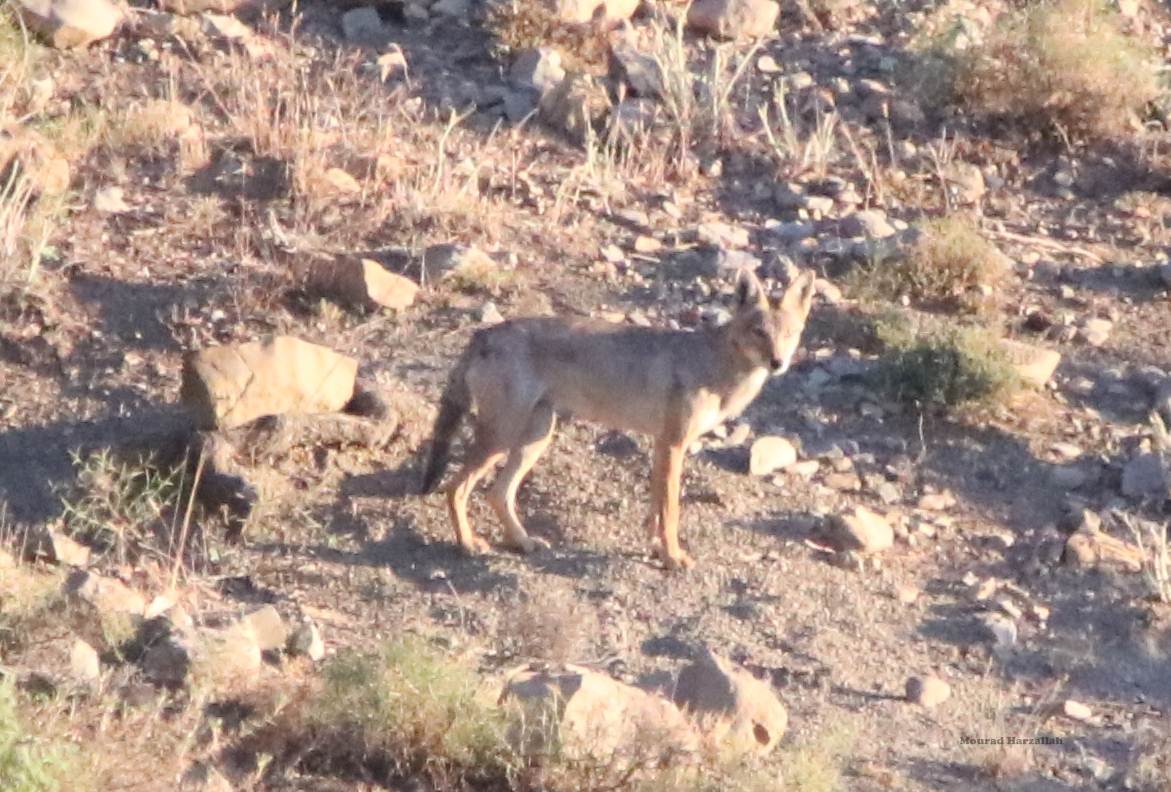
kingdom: Animalia
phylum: Chordata
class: Mammalia
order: Carnivora
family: Canidae
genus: Canis
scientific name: Canis lupaster
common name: African golden wolf
